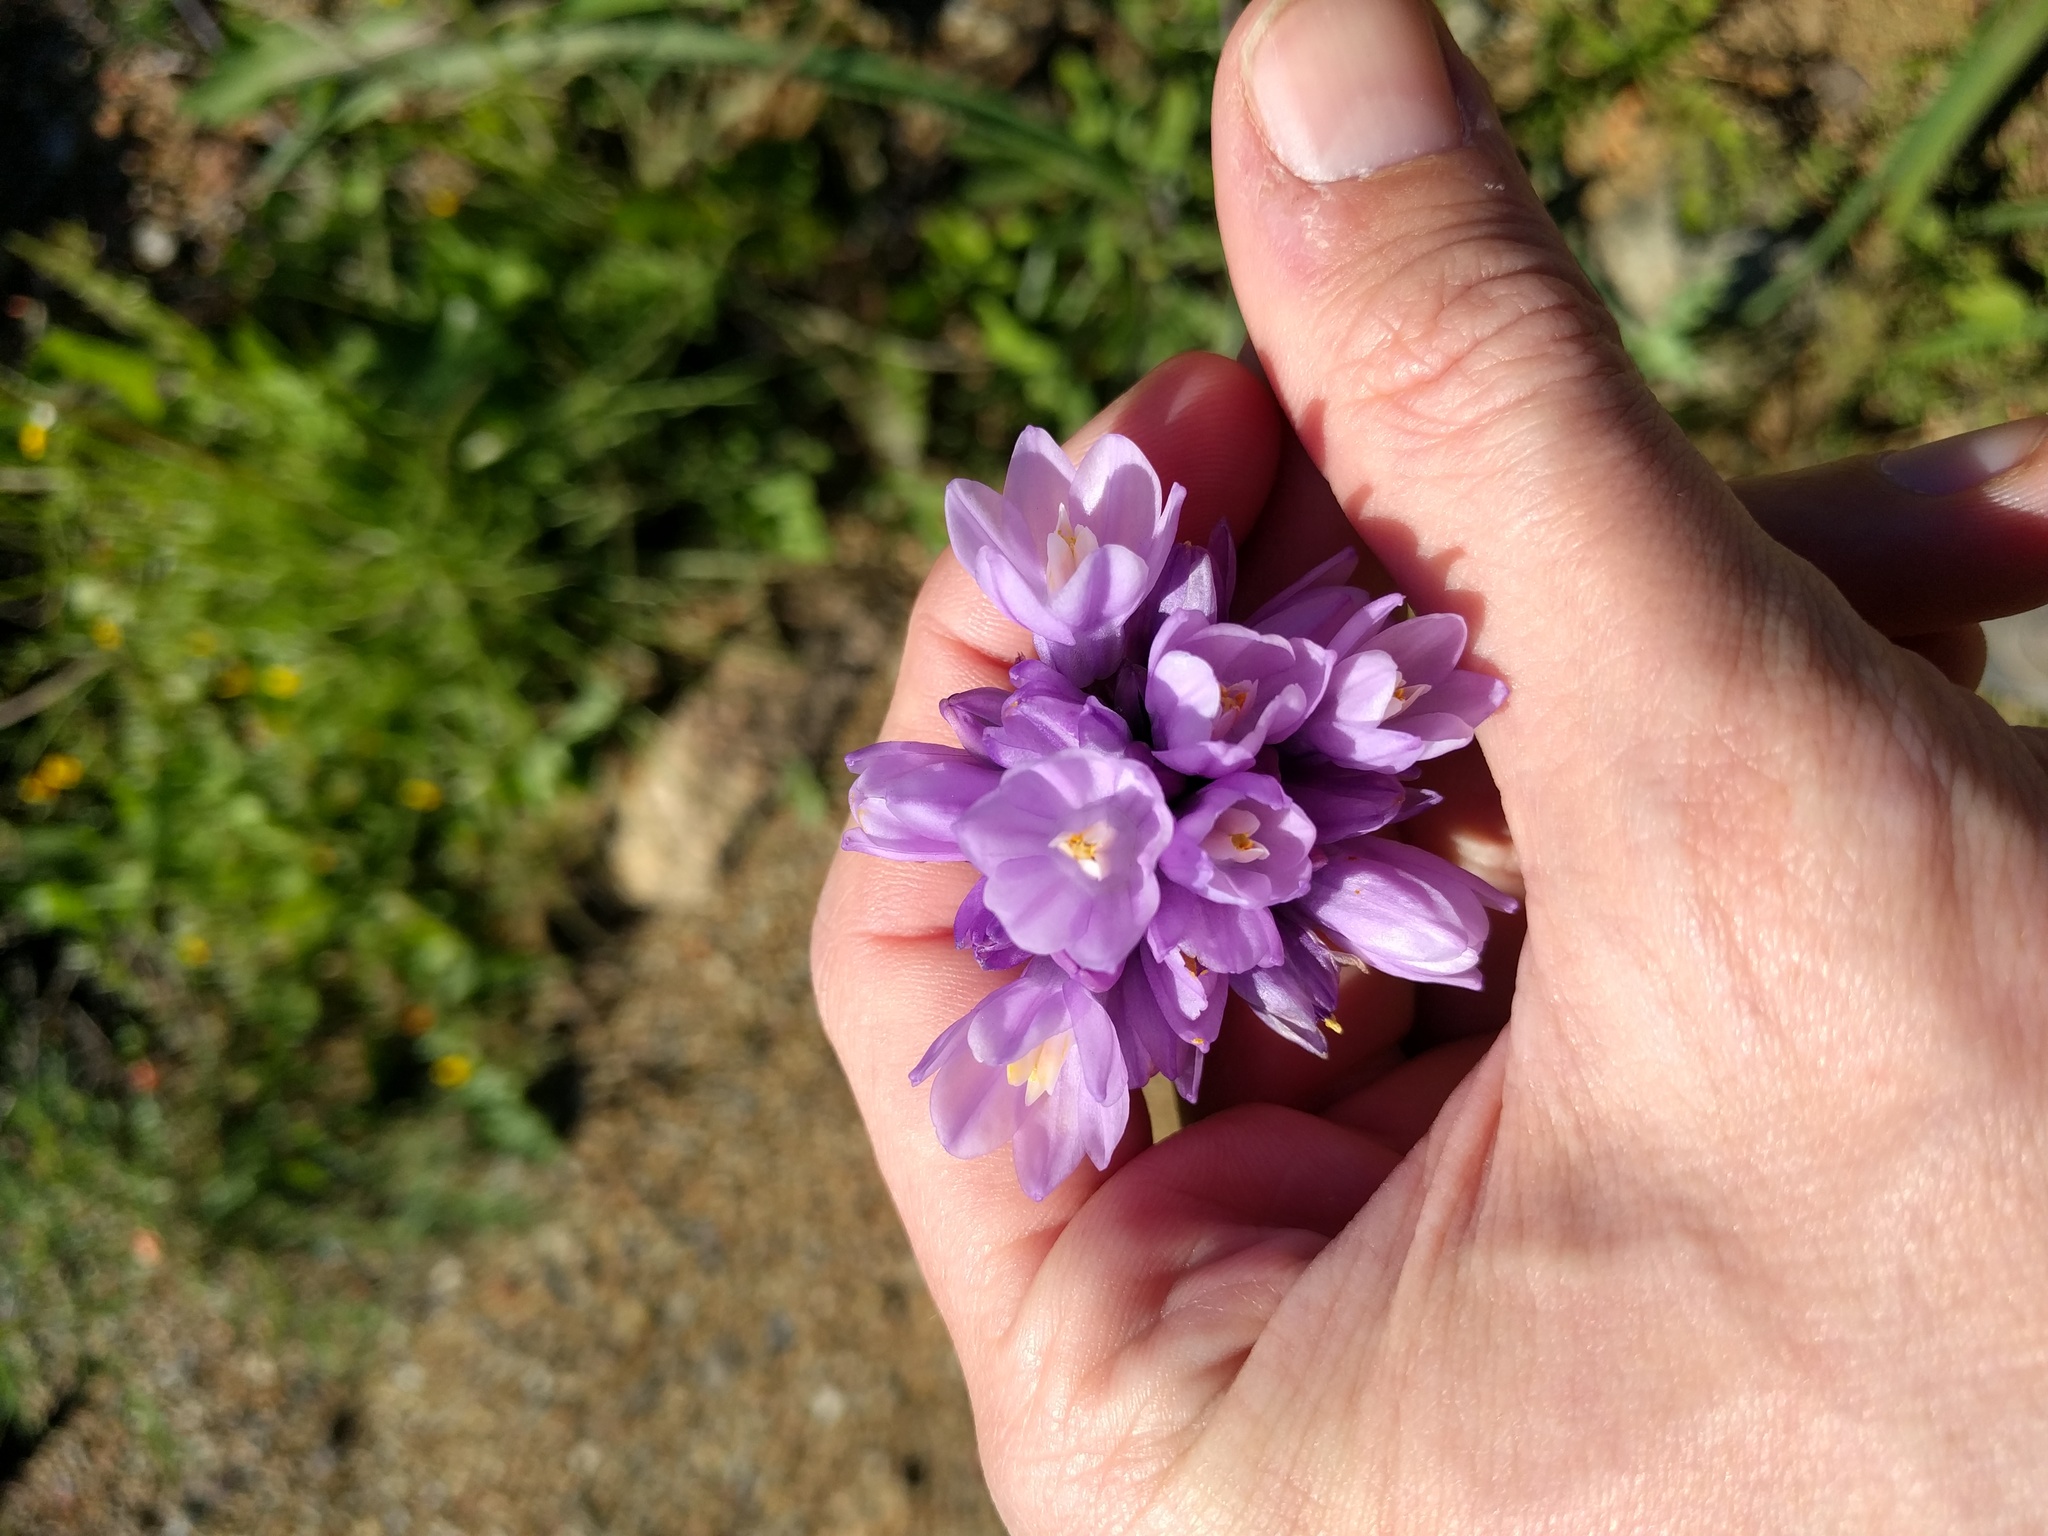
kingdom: Plantae
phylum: Tracheophyta
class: Liliopsida
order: Asparagales
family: Asparagaceae
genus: Dipterostemon
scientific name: Dipterostemon capitatus
